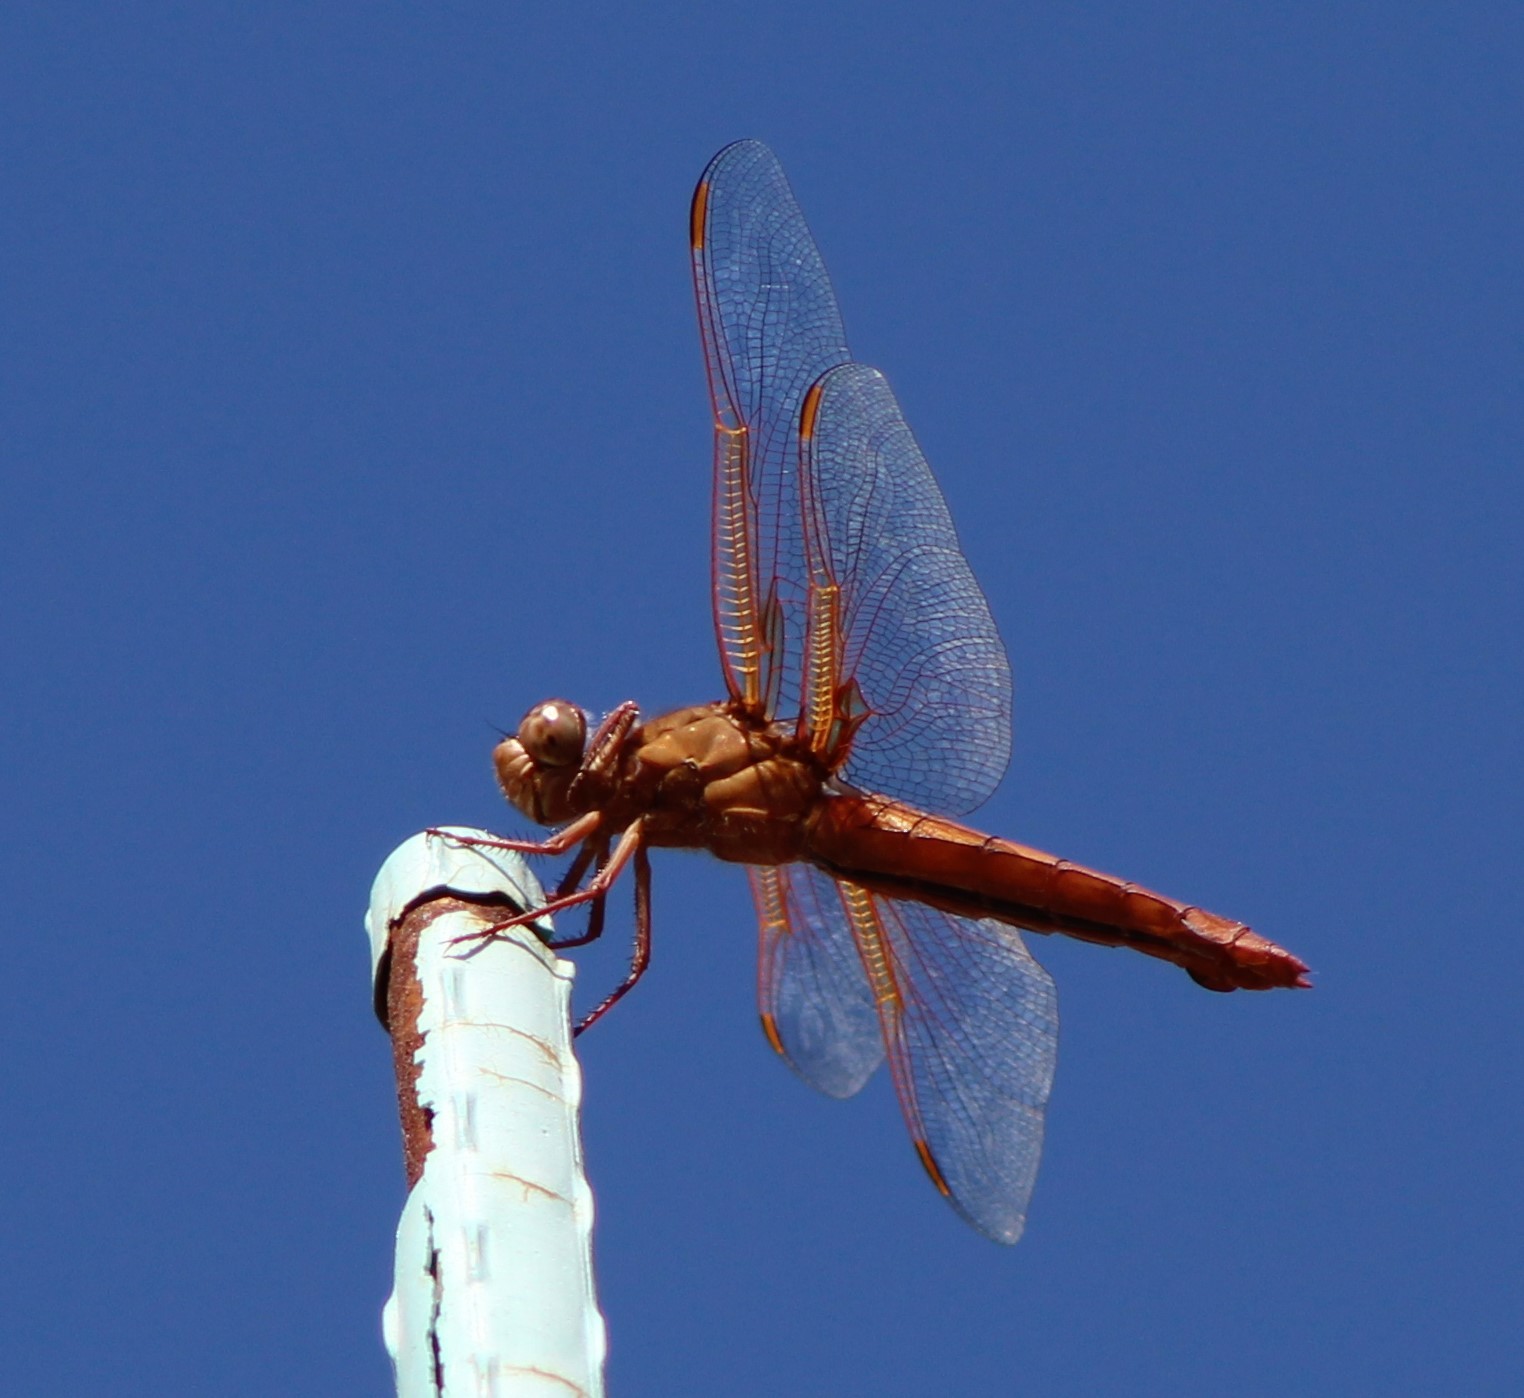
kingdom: Animalia
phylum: Arthropoda
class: Insecta
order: Odonata
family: Libellulidae
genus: Libellula
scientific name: Libellula saturata
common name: Flame skimmer
